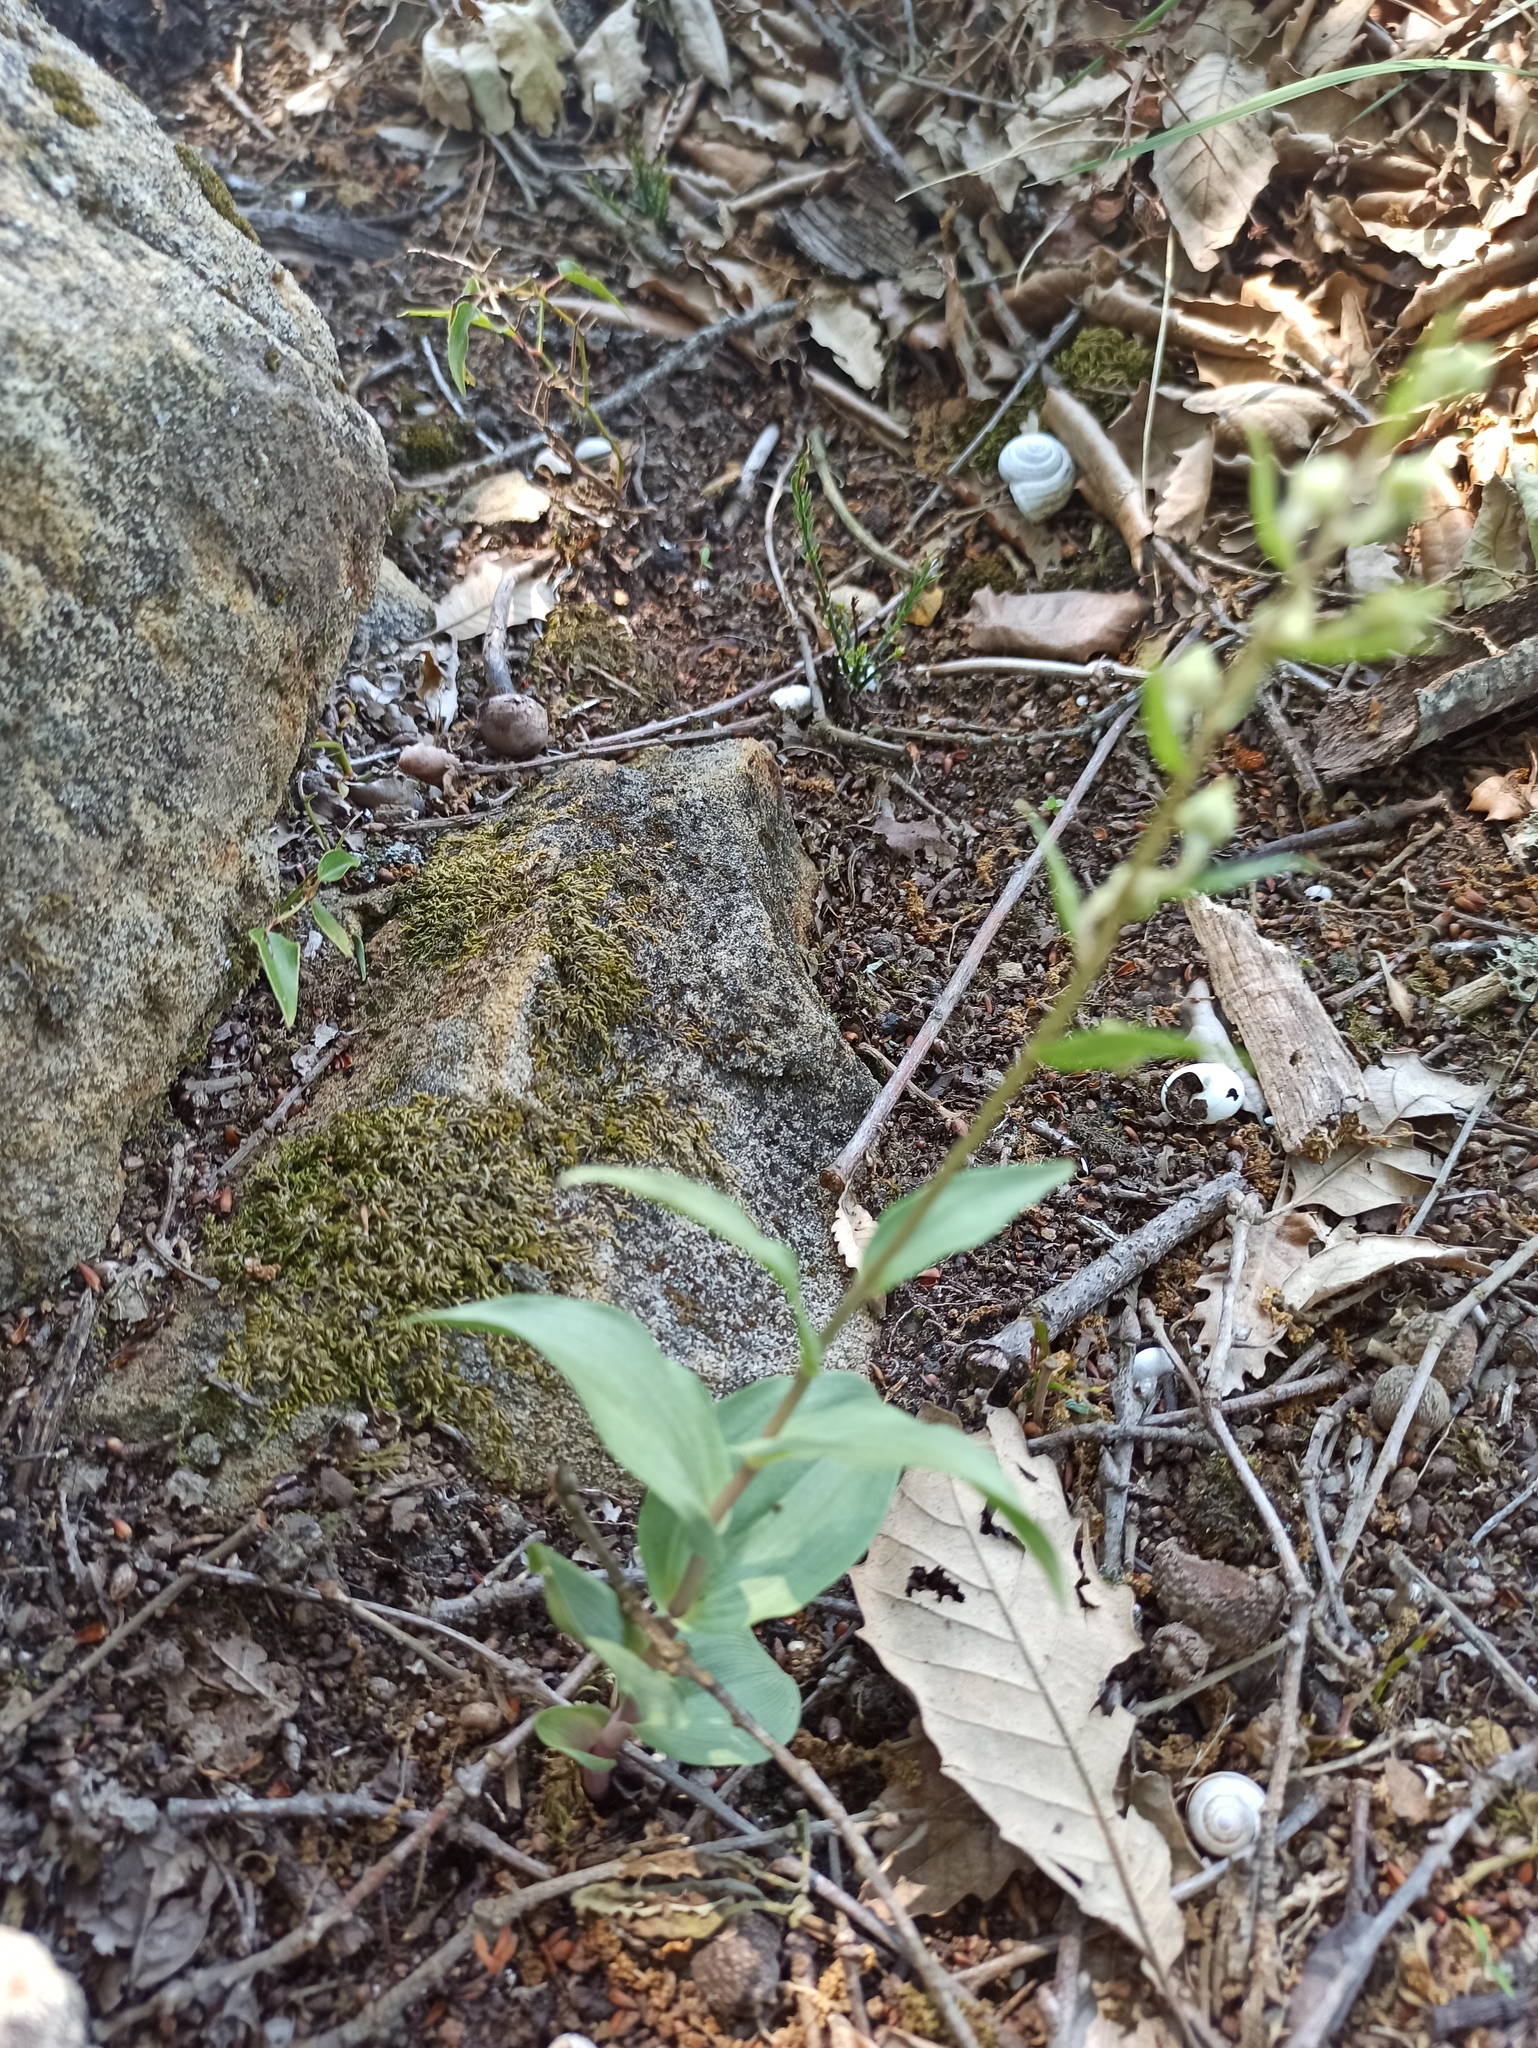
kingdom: Plantae
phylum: Tracheophyta
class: Liliopsida
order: Asparagales
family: Orchidaceae
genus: Epipactis
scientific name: Epipactis helleborine
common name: Broad-leaved helleborine
